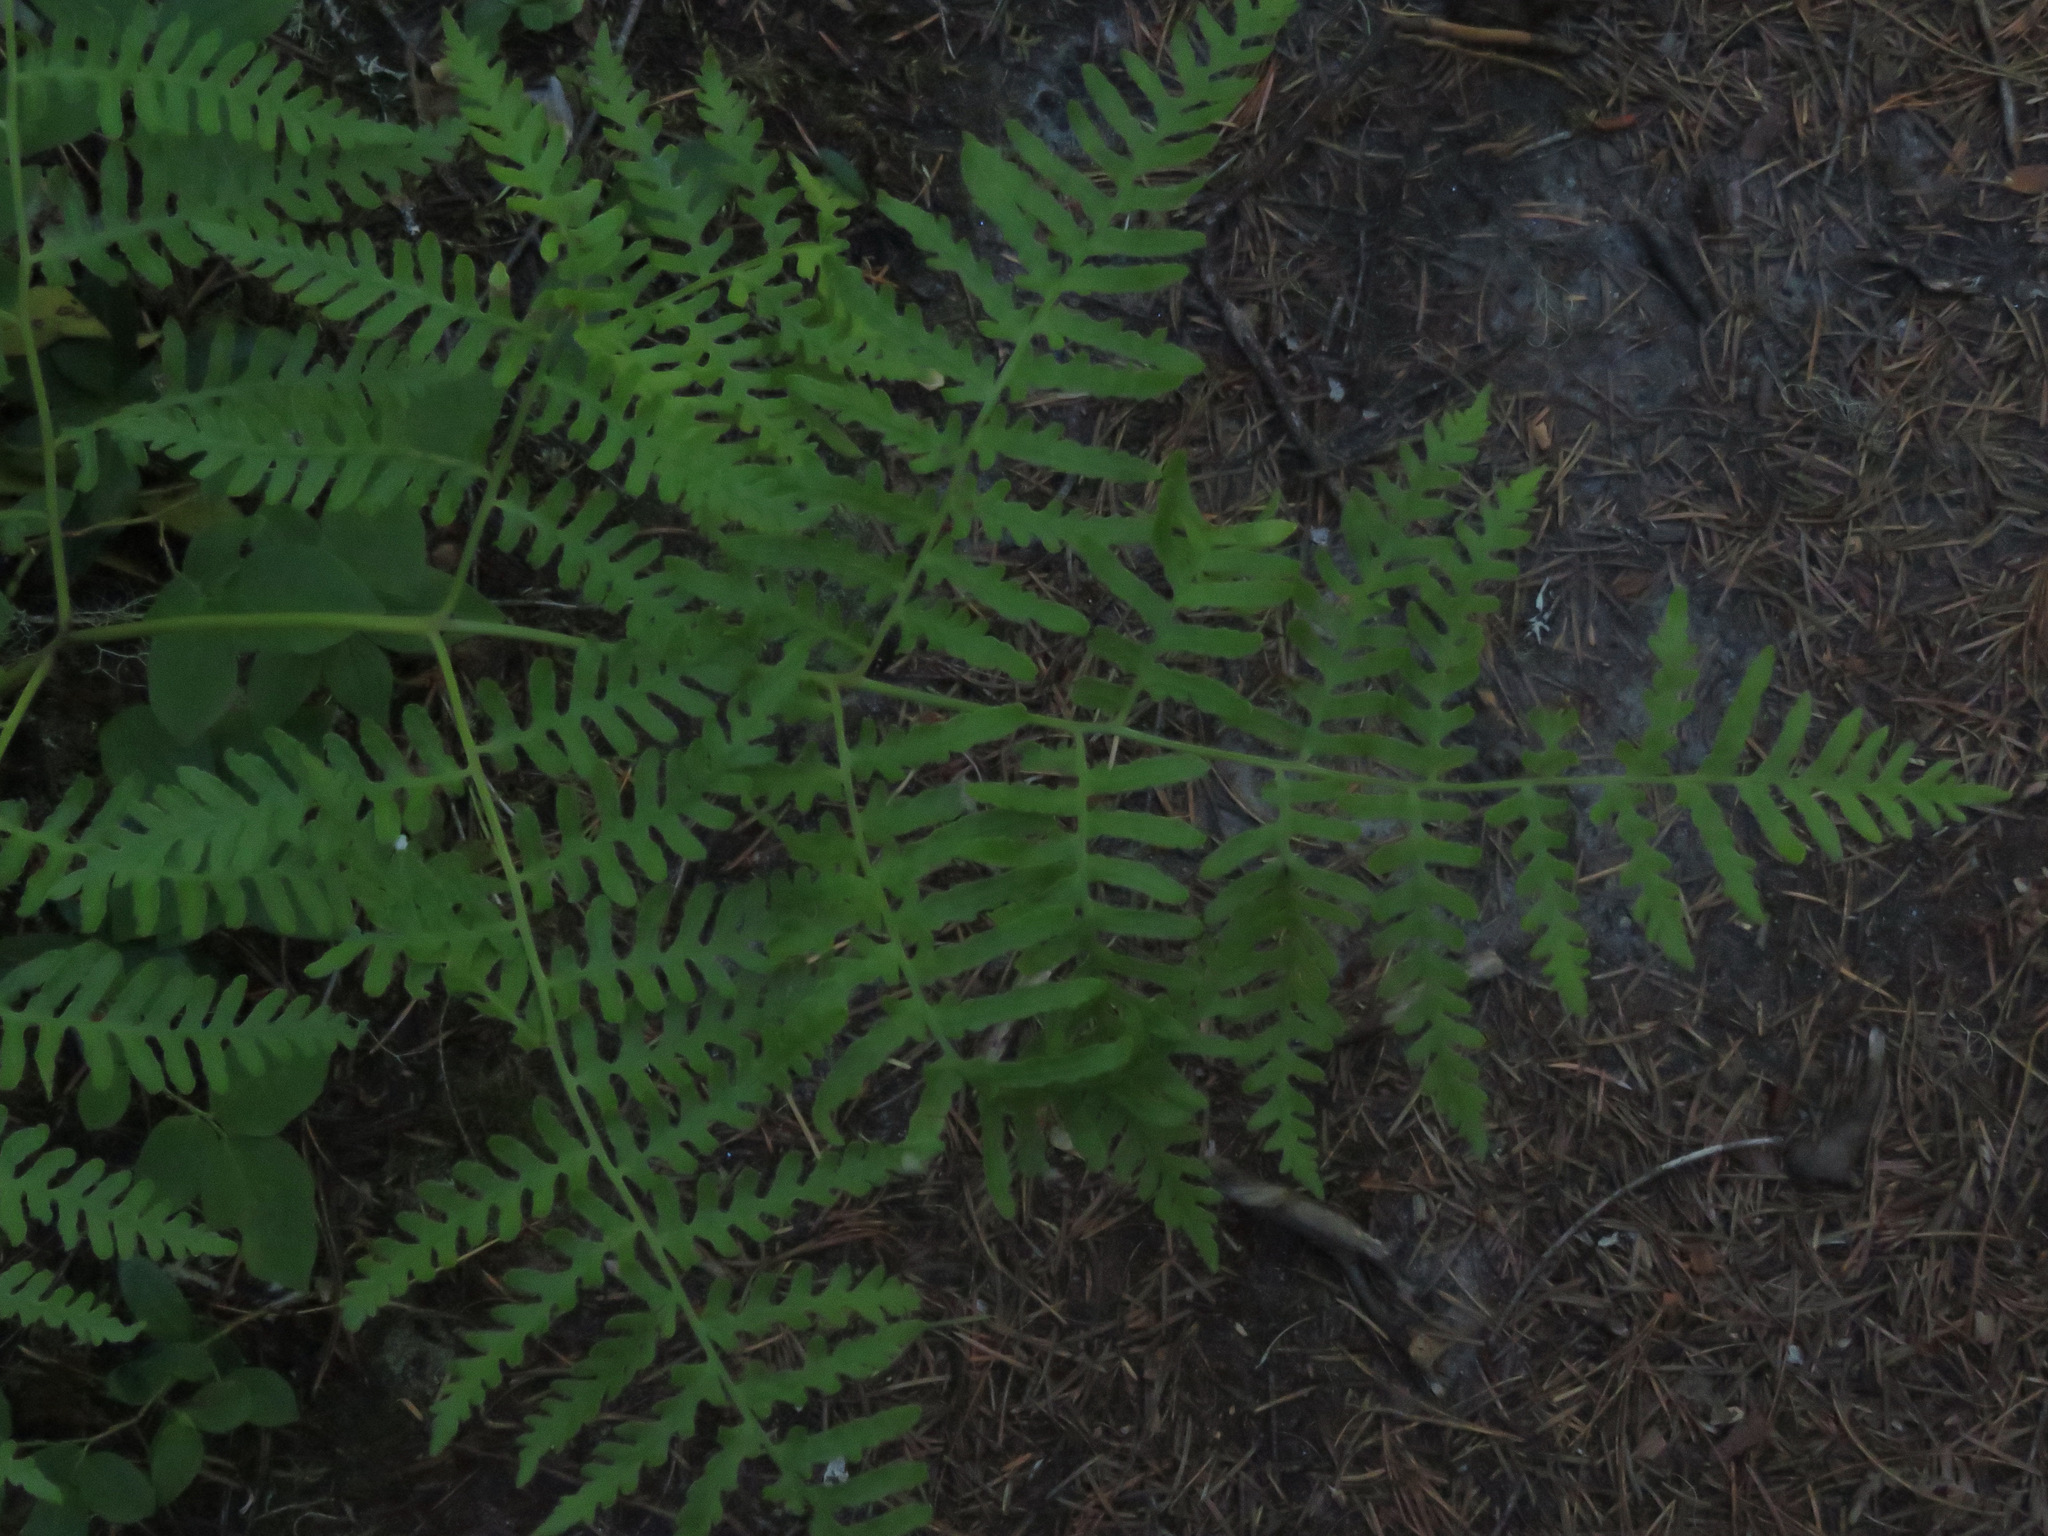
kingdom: Plantae
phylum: Tracheophyta
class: Polypodiopsida
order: Polypodiales
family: Dennstaedtiaceae
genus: Pteridium
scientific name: Pteridium aquilinum
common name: Bracken
